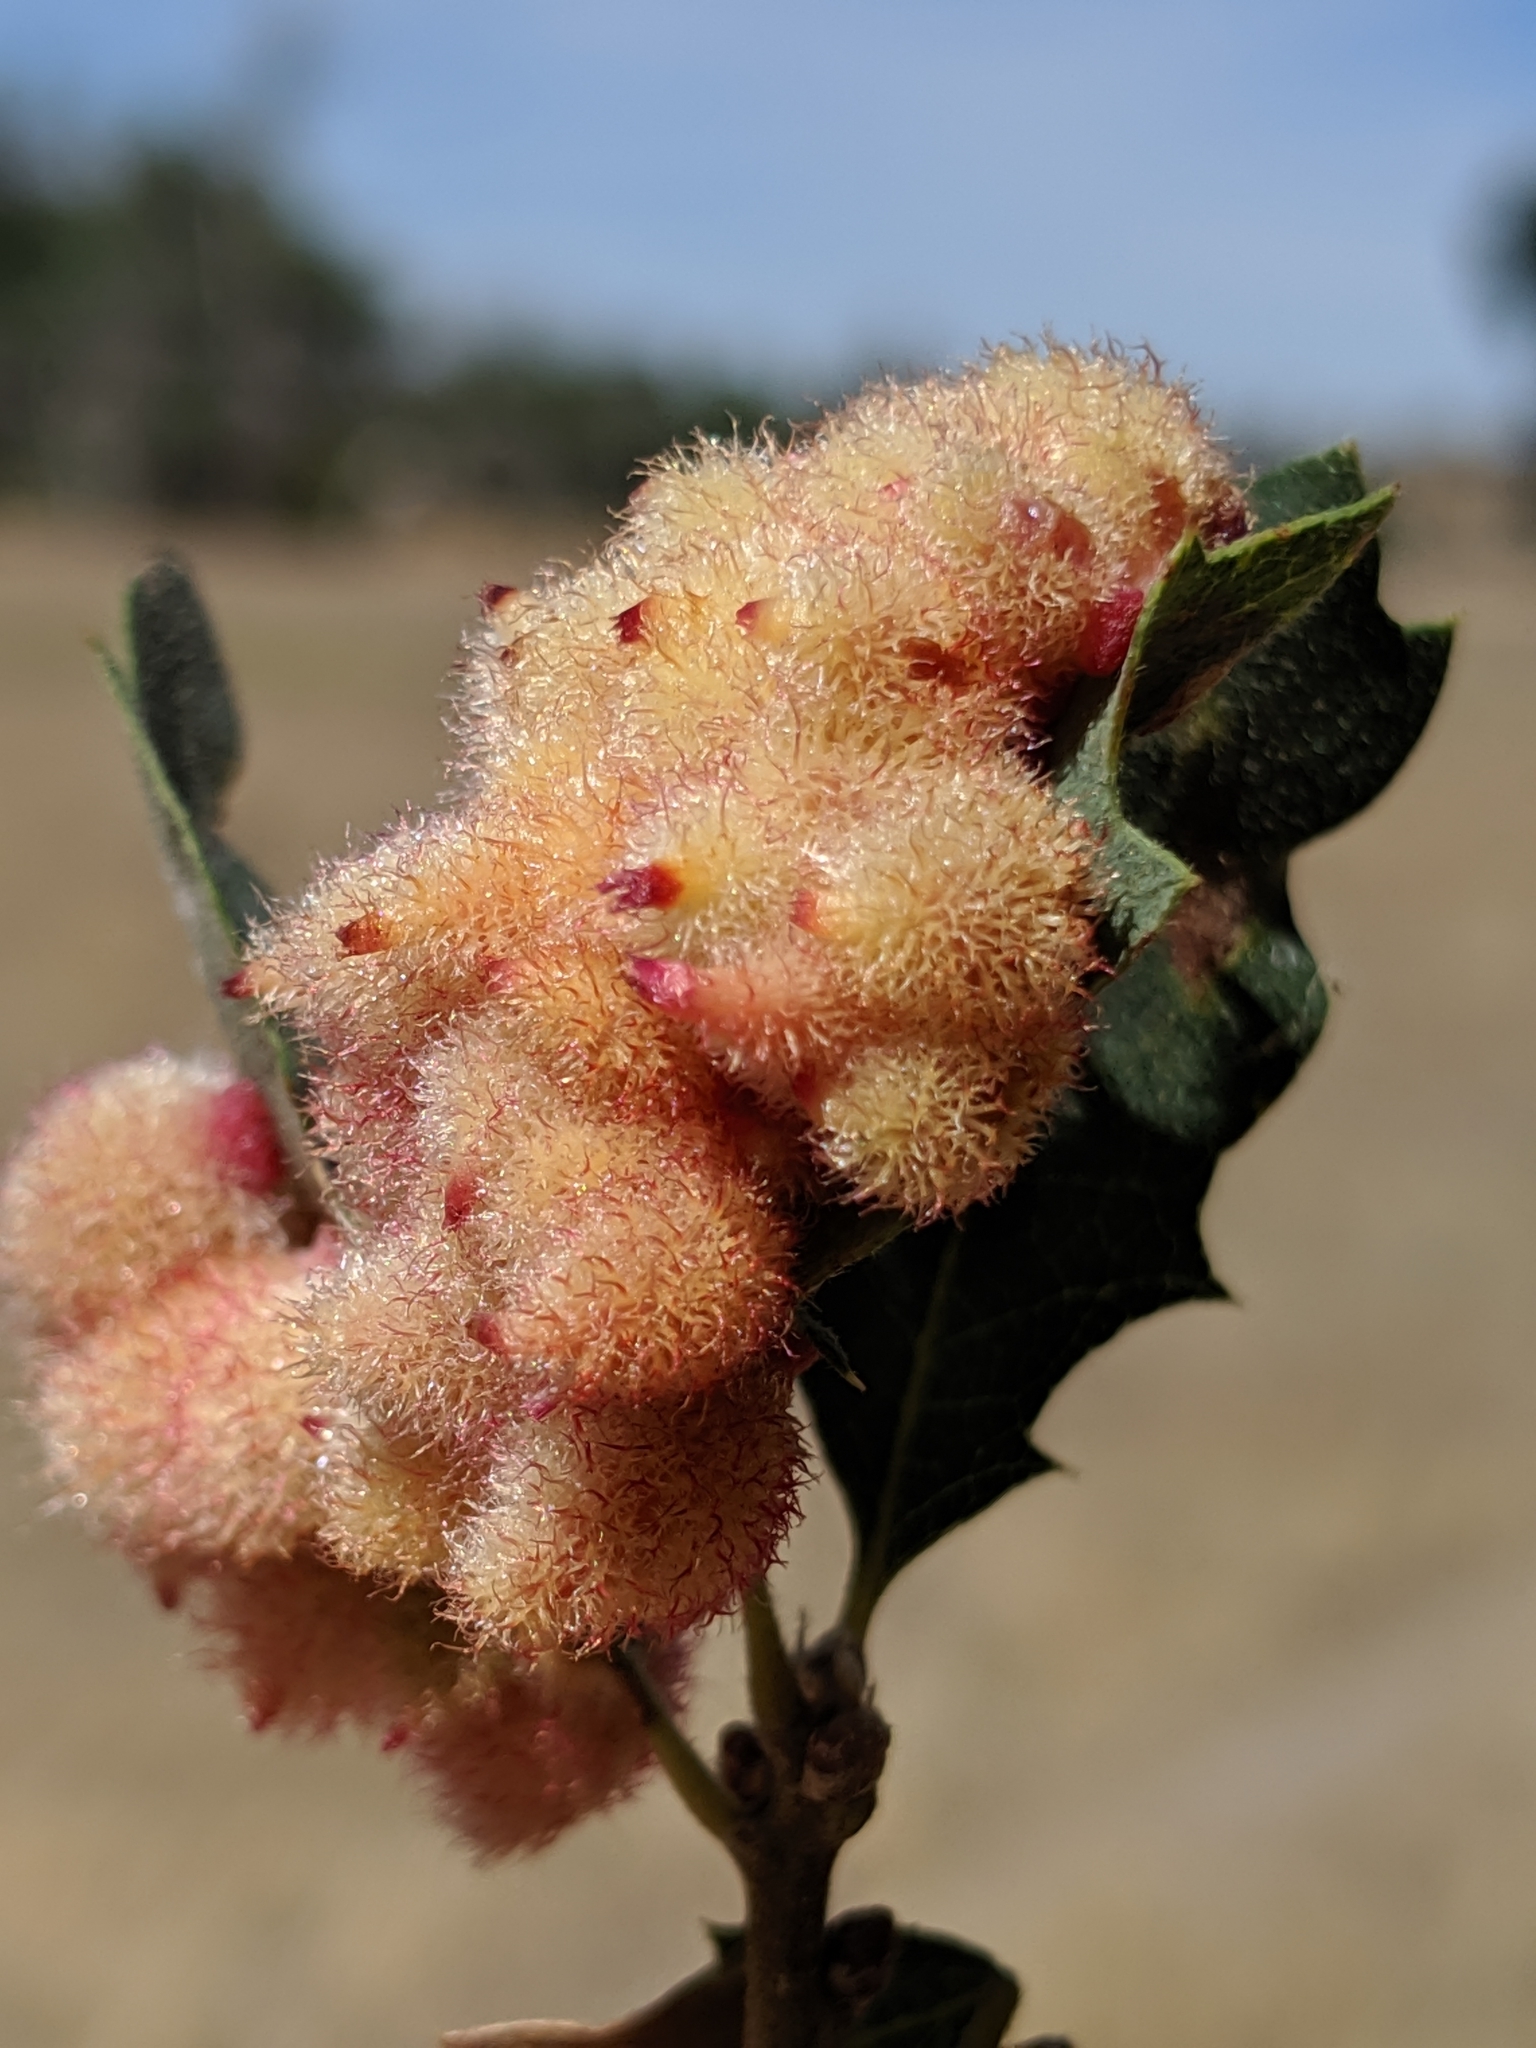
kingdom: Animalia
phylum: Arthropoda
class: Insecta
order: Hymenoptera
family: Cynipidae
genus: Andricus
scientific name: Andricus
